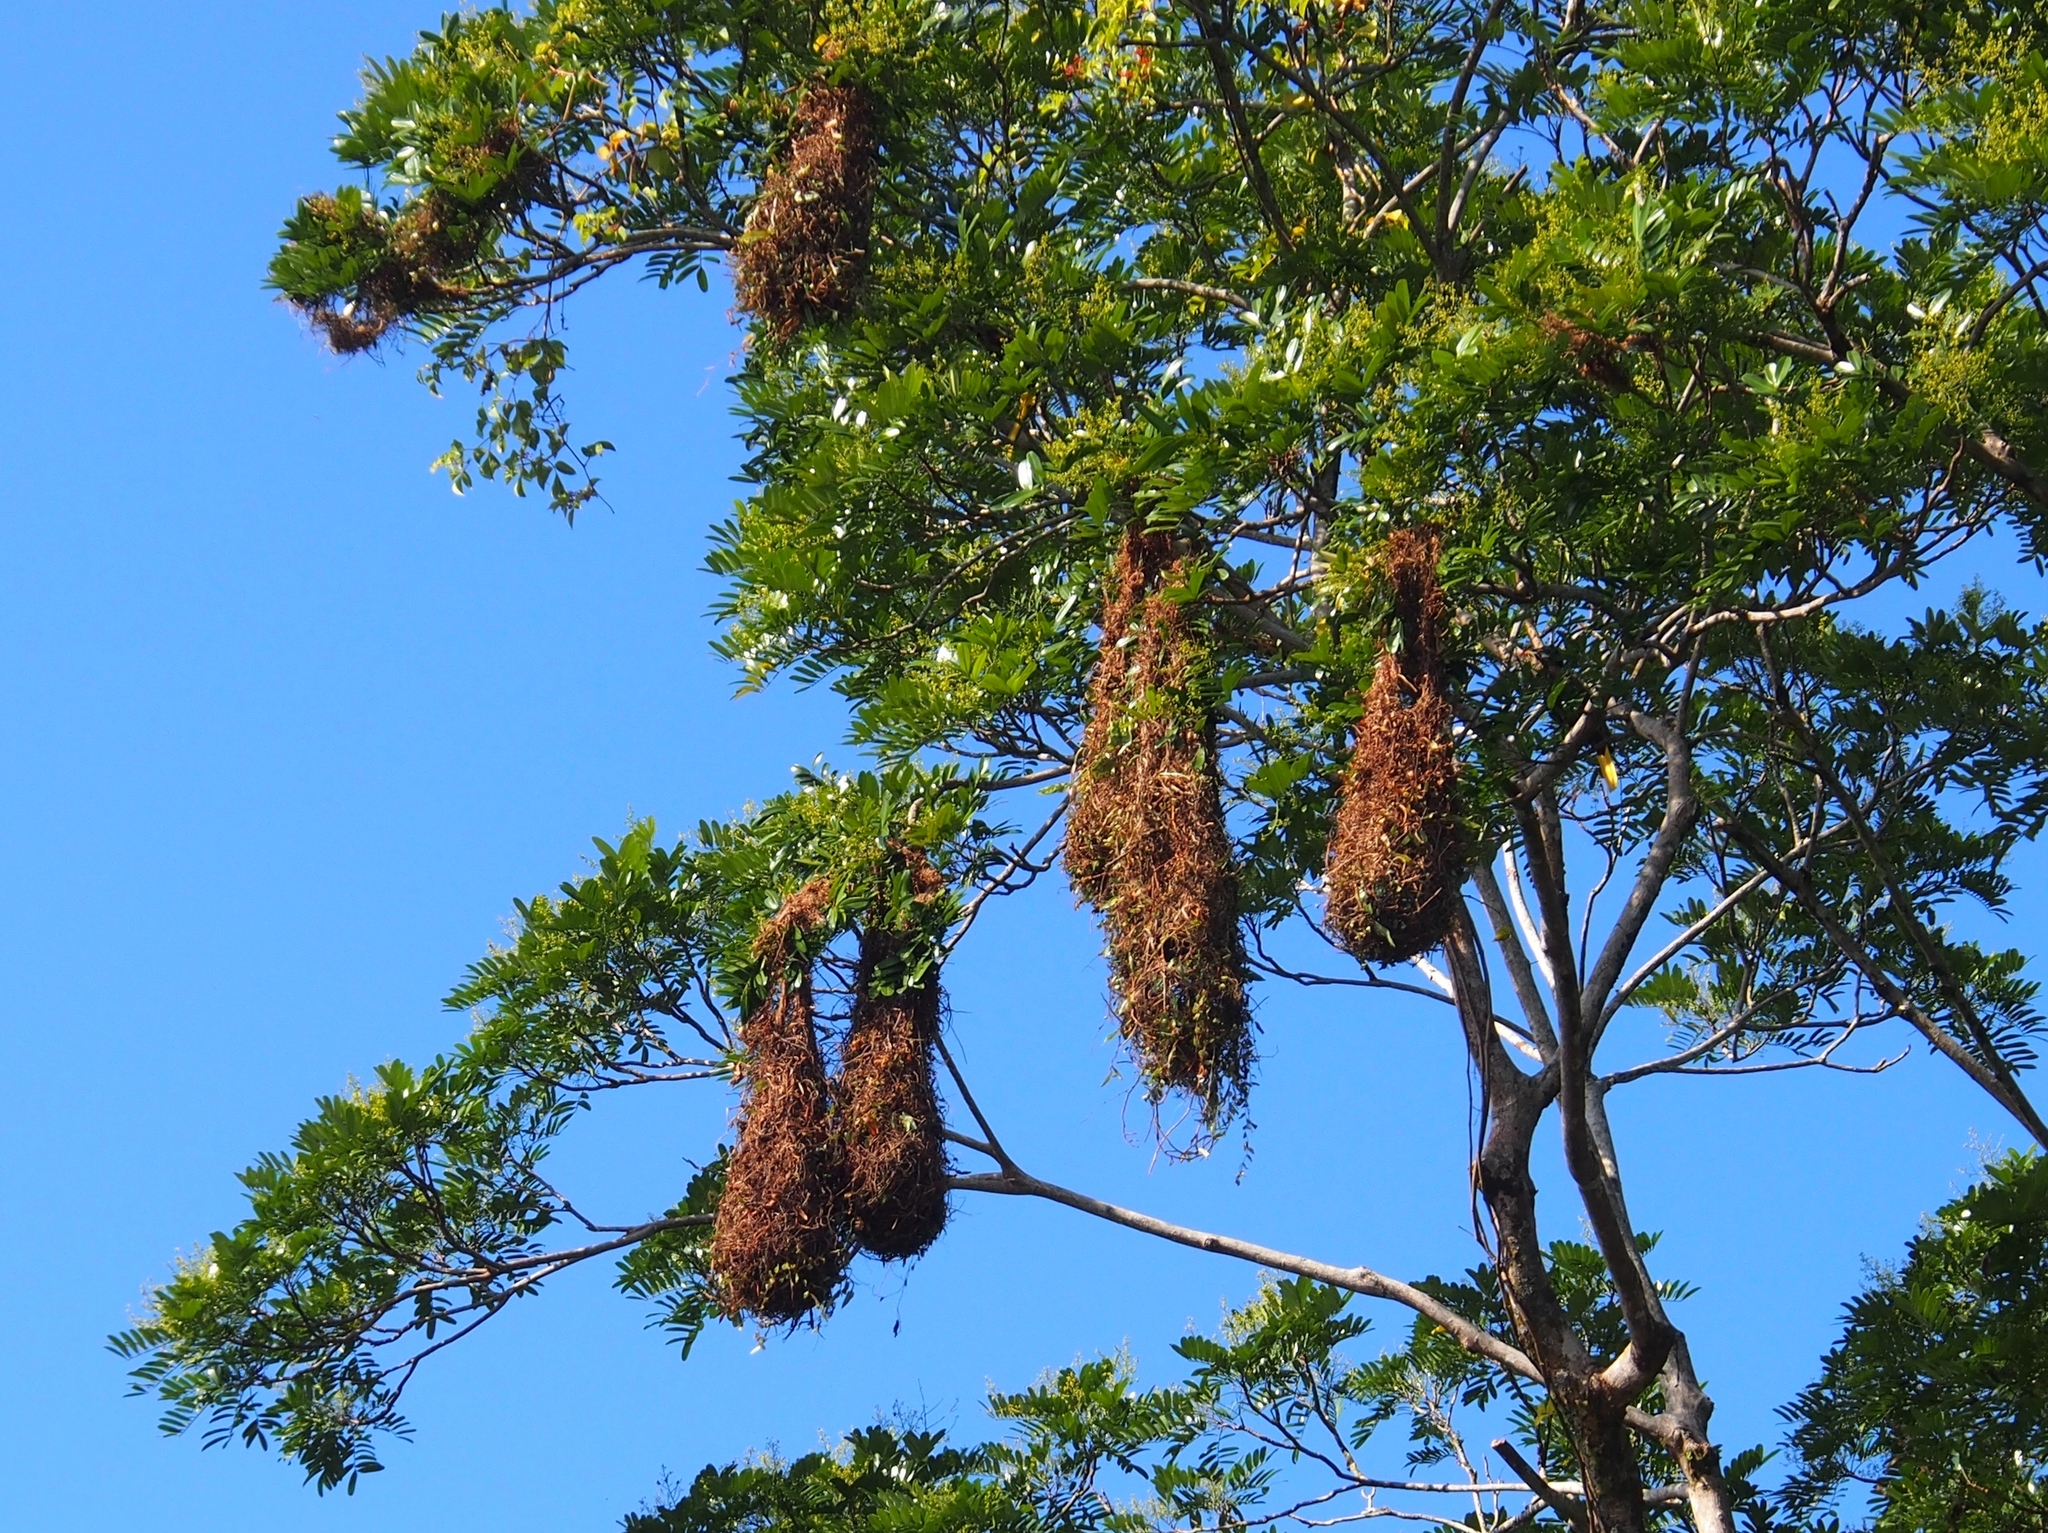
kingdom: Animalia
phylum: Chordata
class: Aves
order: Passeriformes
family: Icteridae
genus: Psarocolius
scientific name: Psarocolius montezuma
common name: Montezuma oropendola
